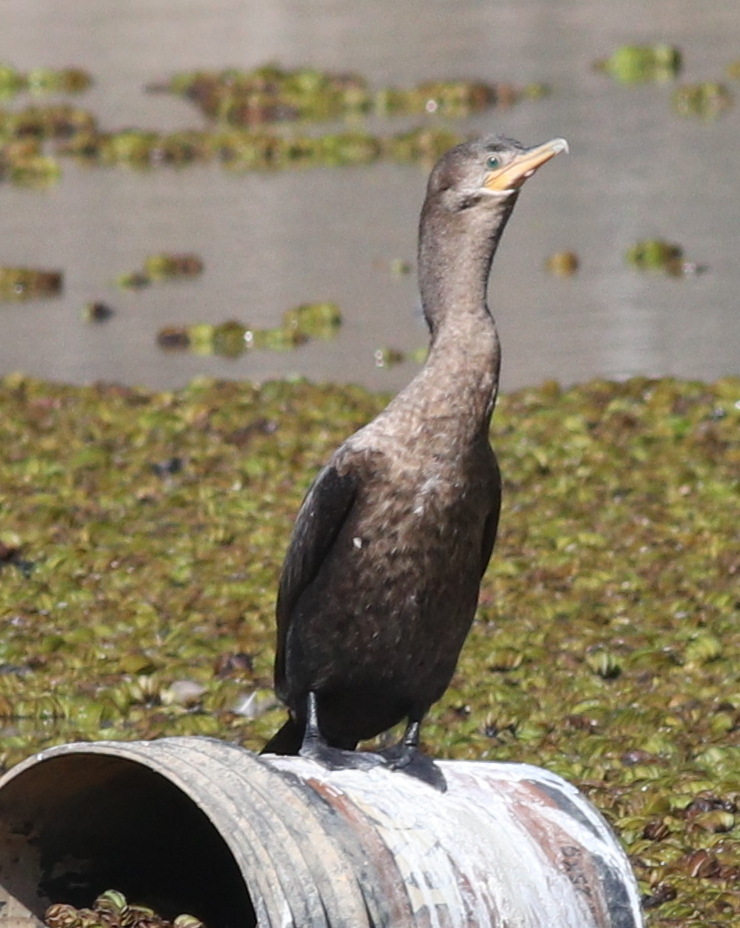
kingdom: Animalia
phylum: Chordata
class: Aves
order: Suliformes
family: Phalacrocoracidae
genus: Phalacrocorax
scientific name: Phalacrocorax brasilianus
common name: Neotropic cormorant
